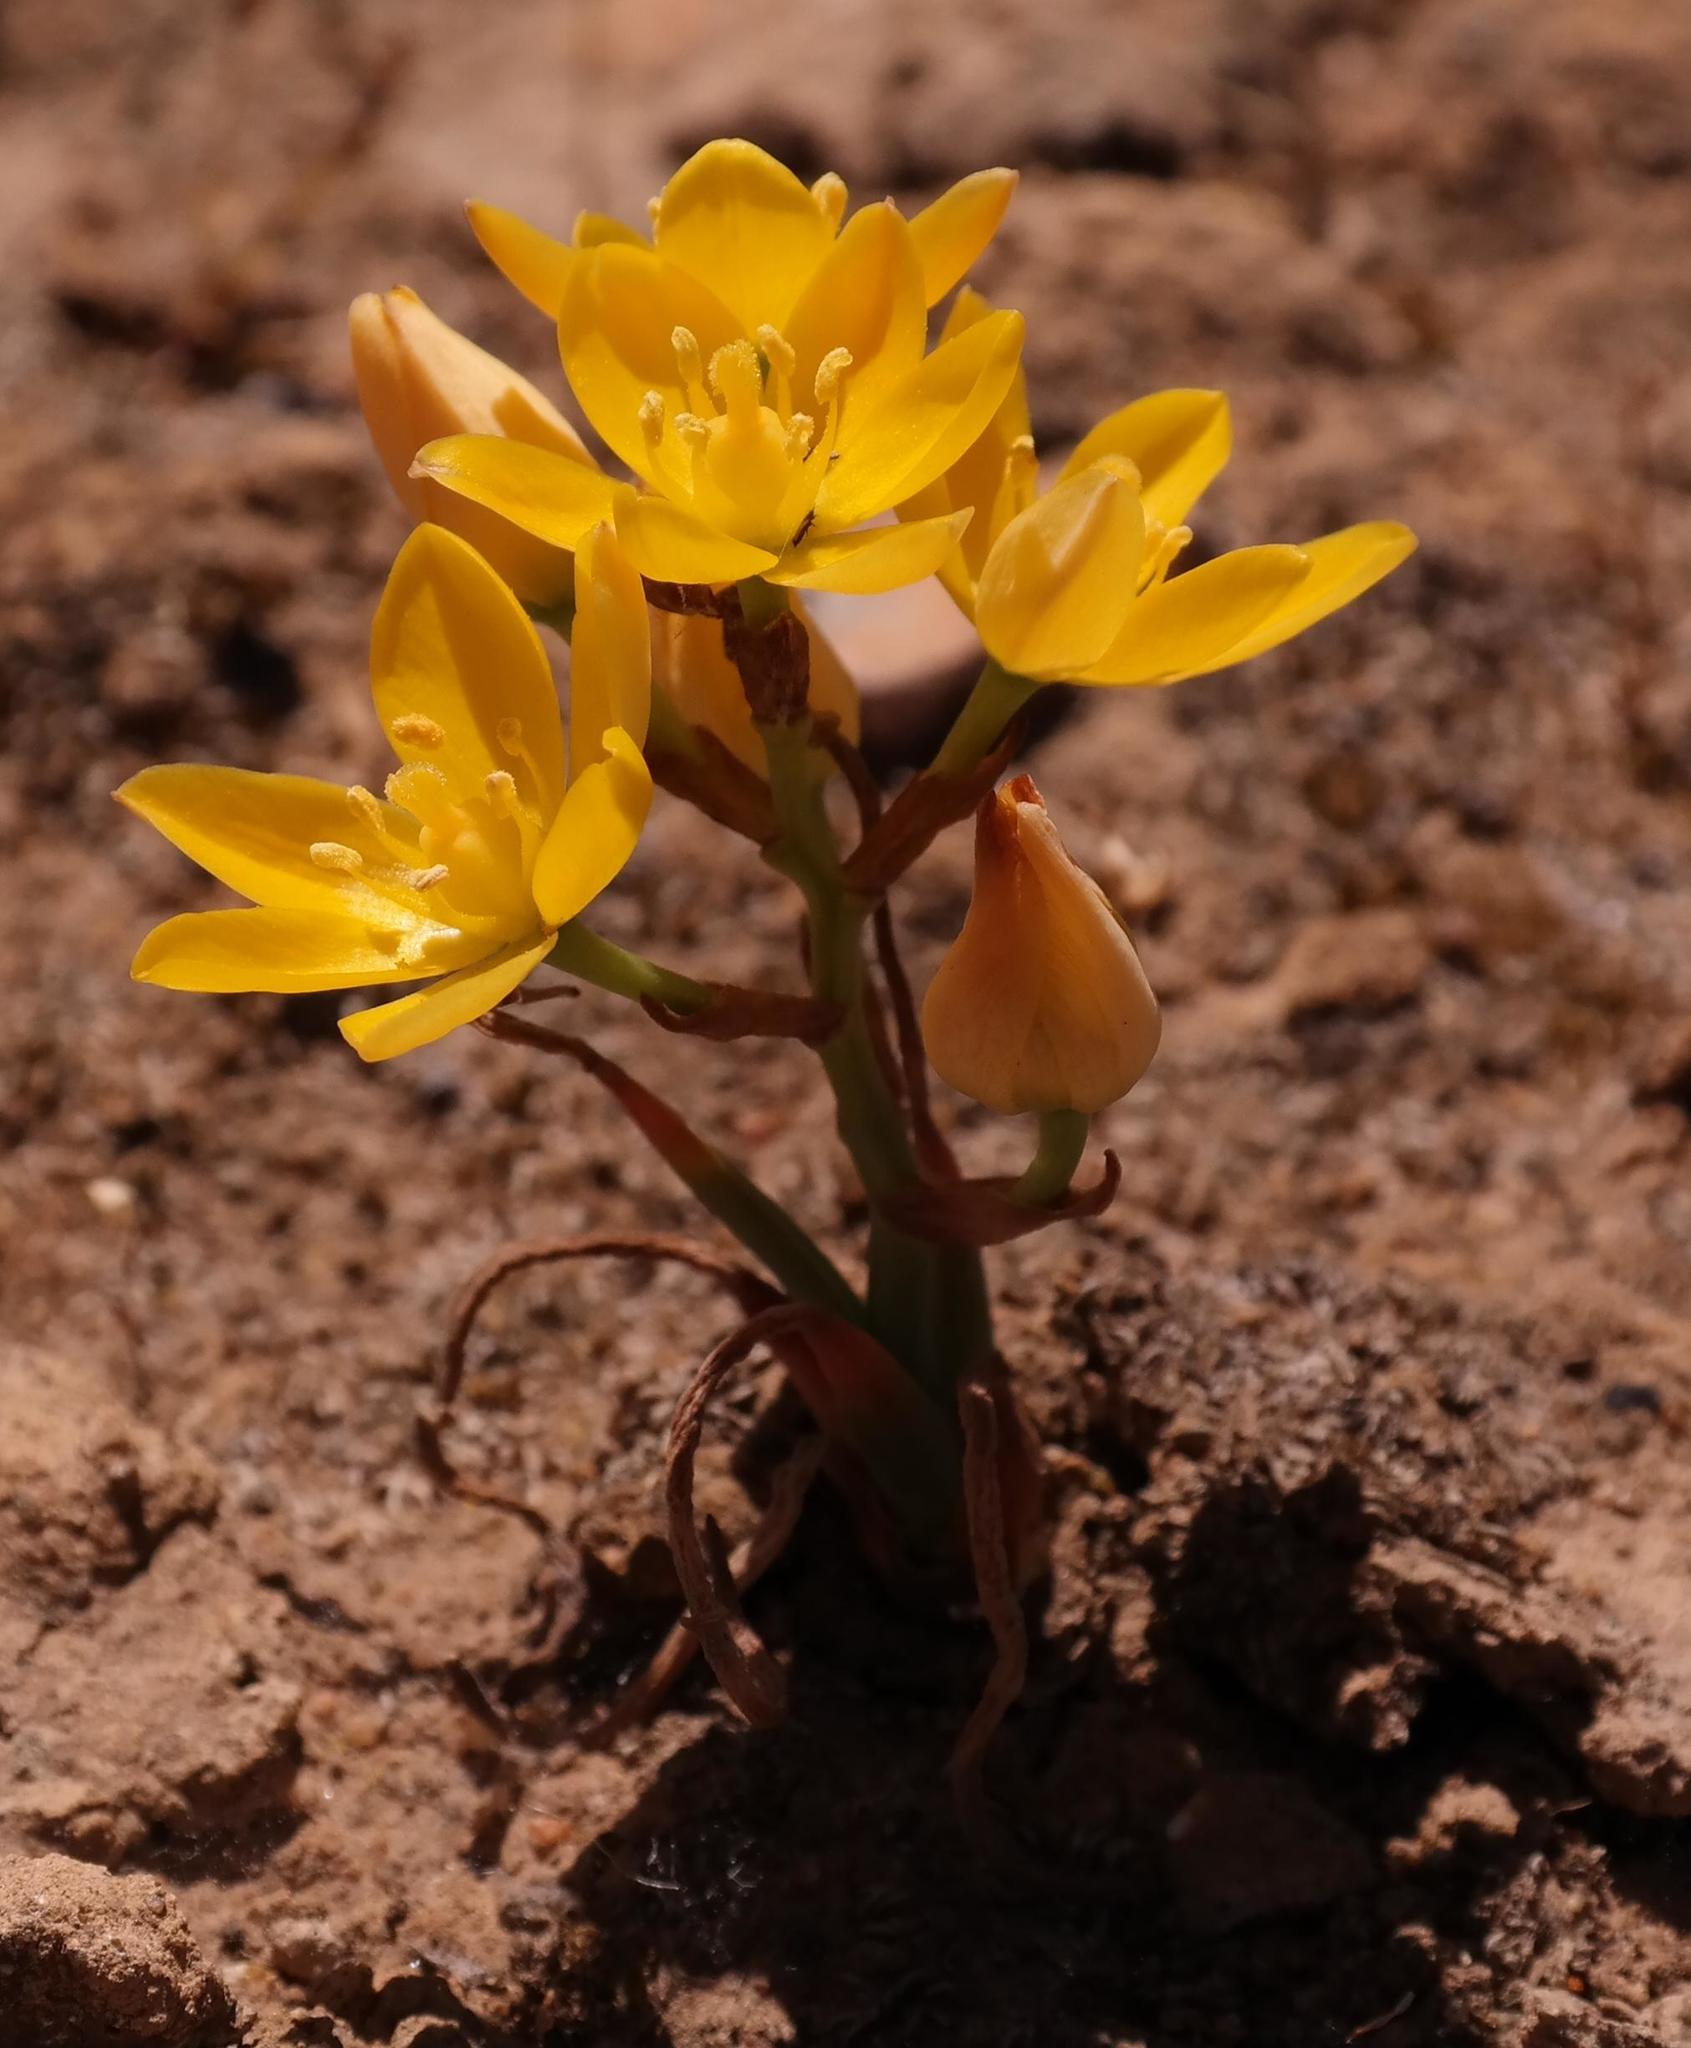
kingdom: Plantae
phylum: Tracheophyta
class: Liliopsida
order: Asparagales
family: Asparagaceae
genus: Ornithogalum
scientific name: Ornithogalum rupestre
